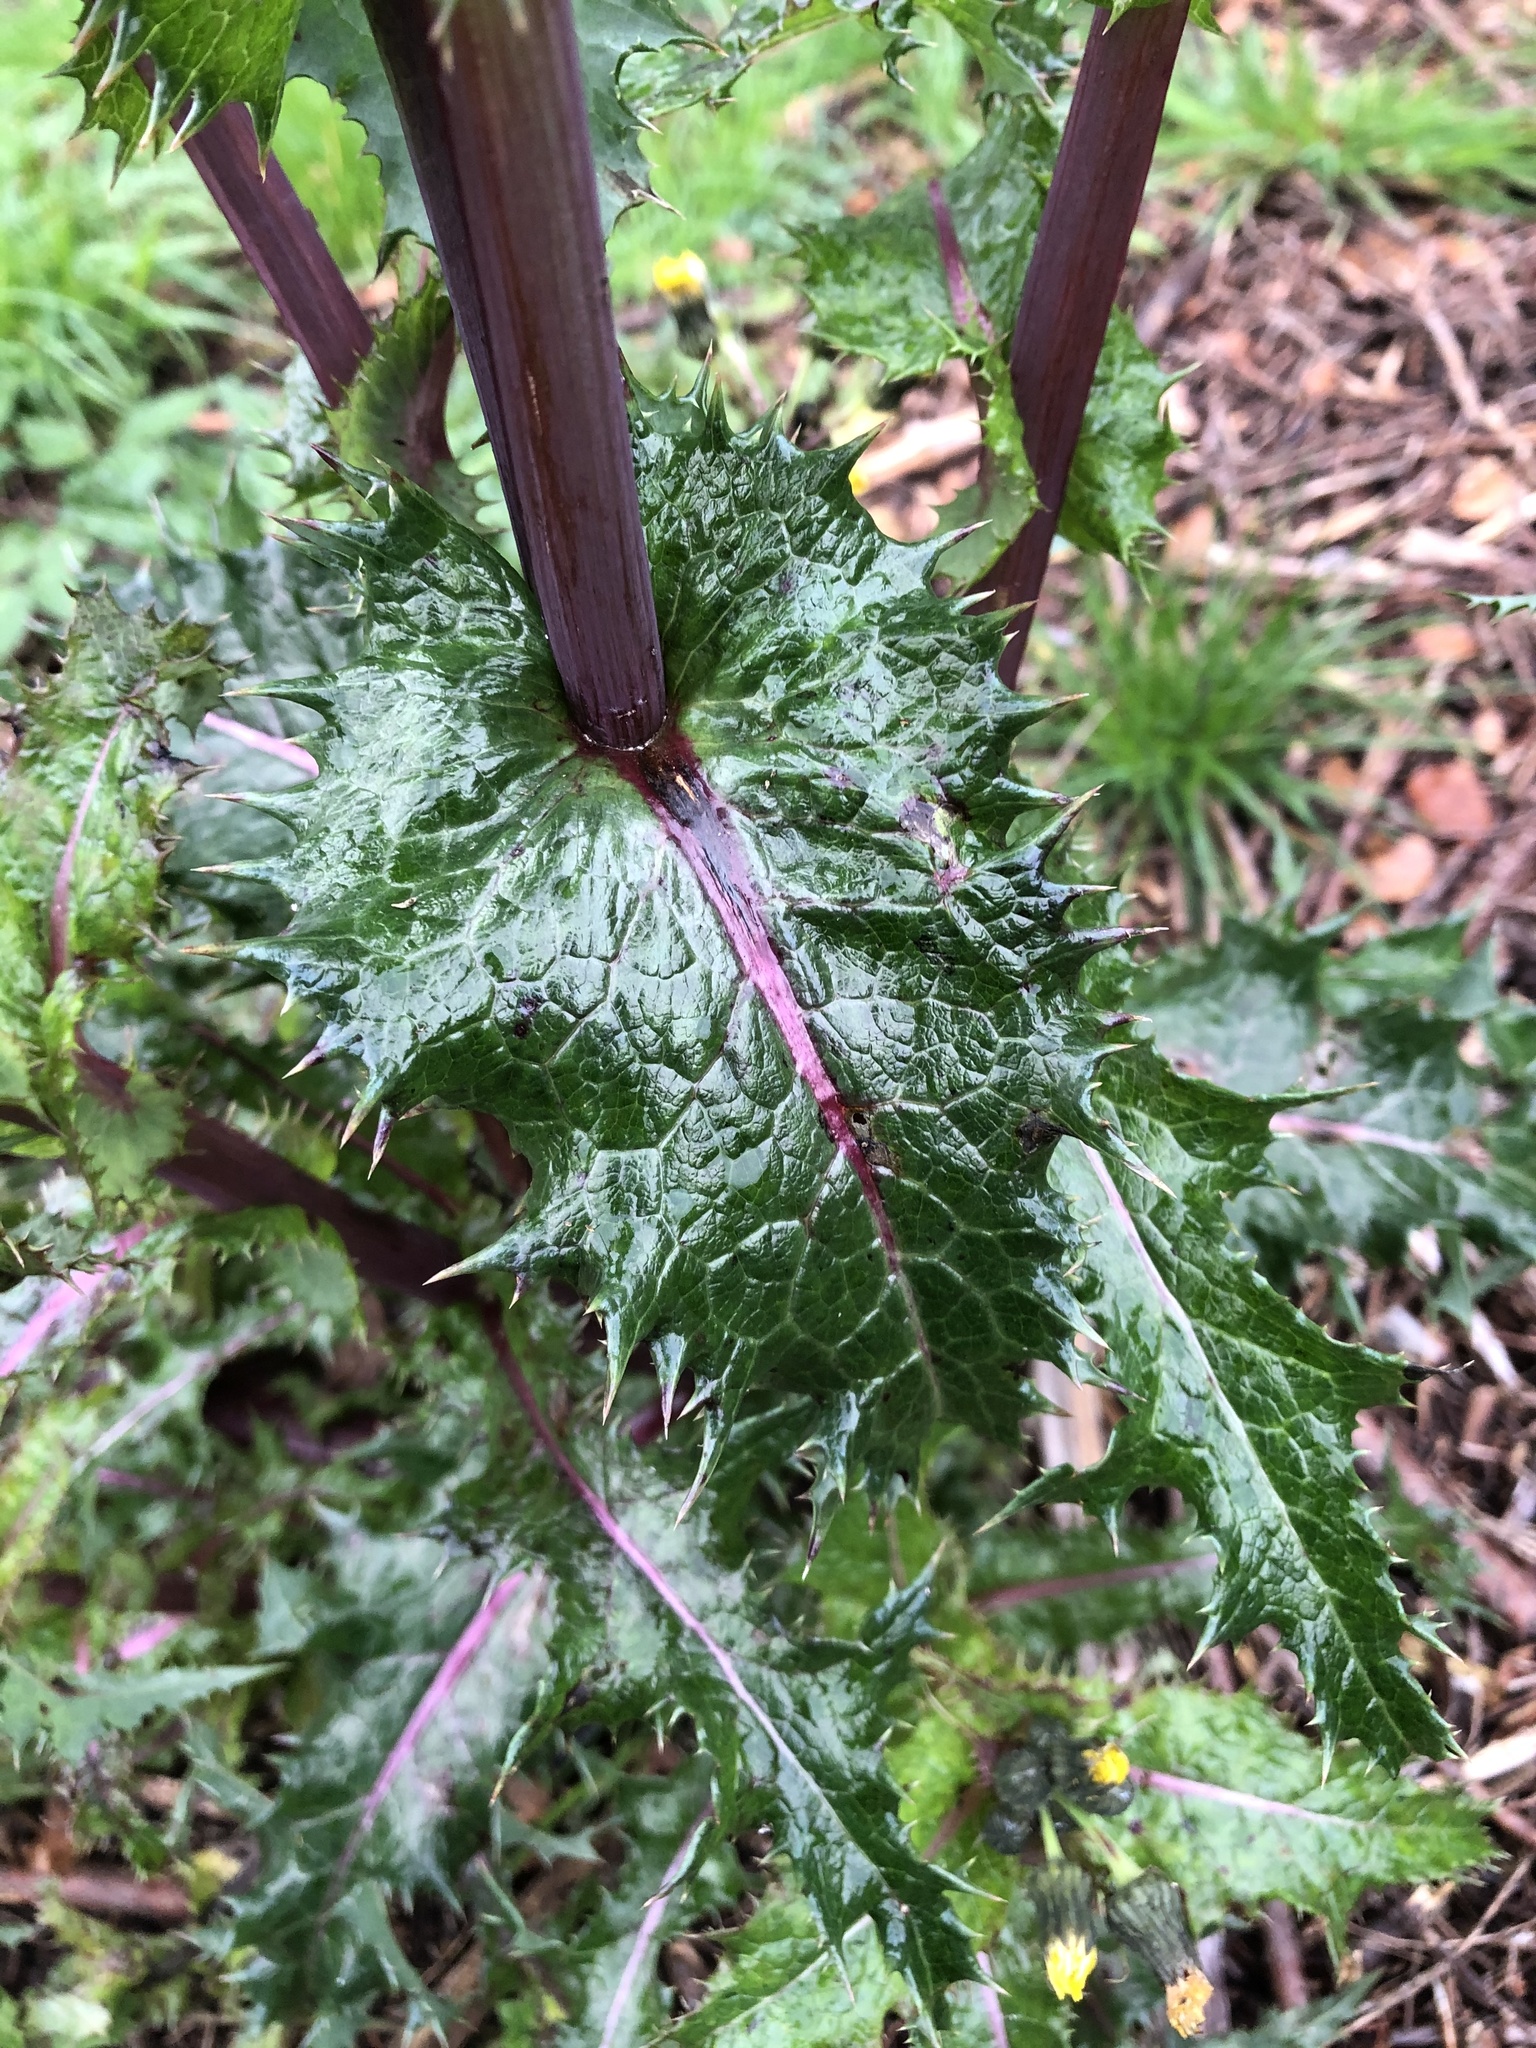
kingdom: Plantae
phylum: Tracheophyta
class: Magnoliopsida
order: Asterales
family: Asteraceae
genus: Sonchus
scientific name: Sonchus asper
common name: Prickly sow-thistle
